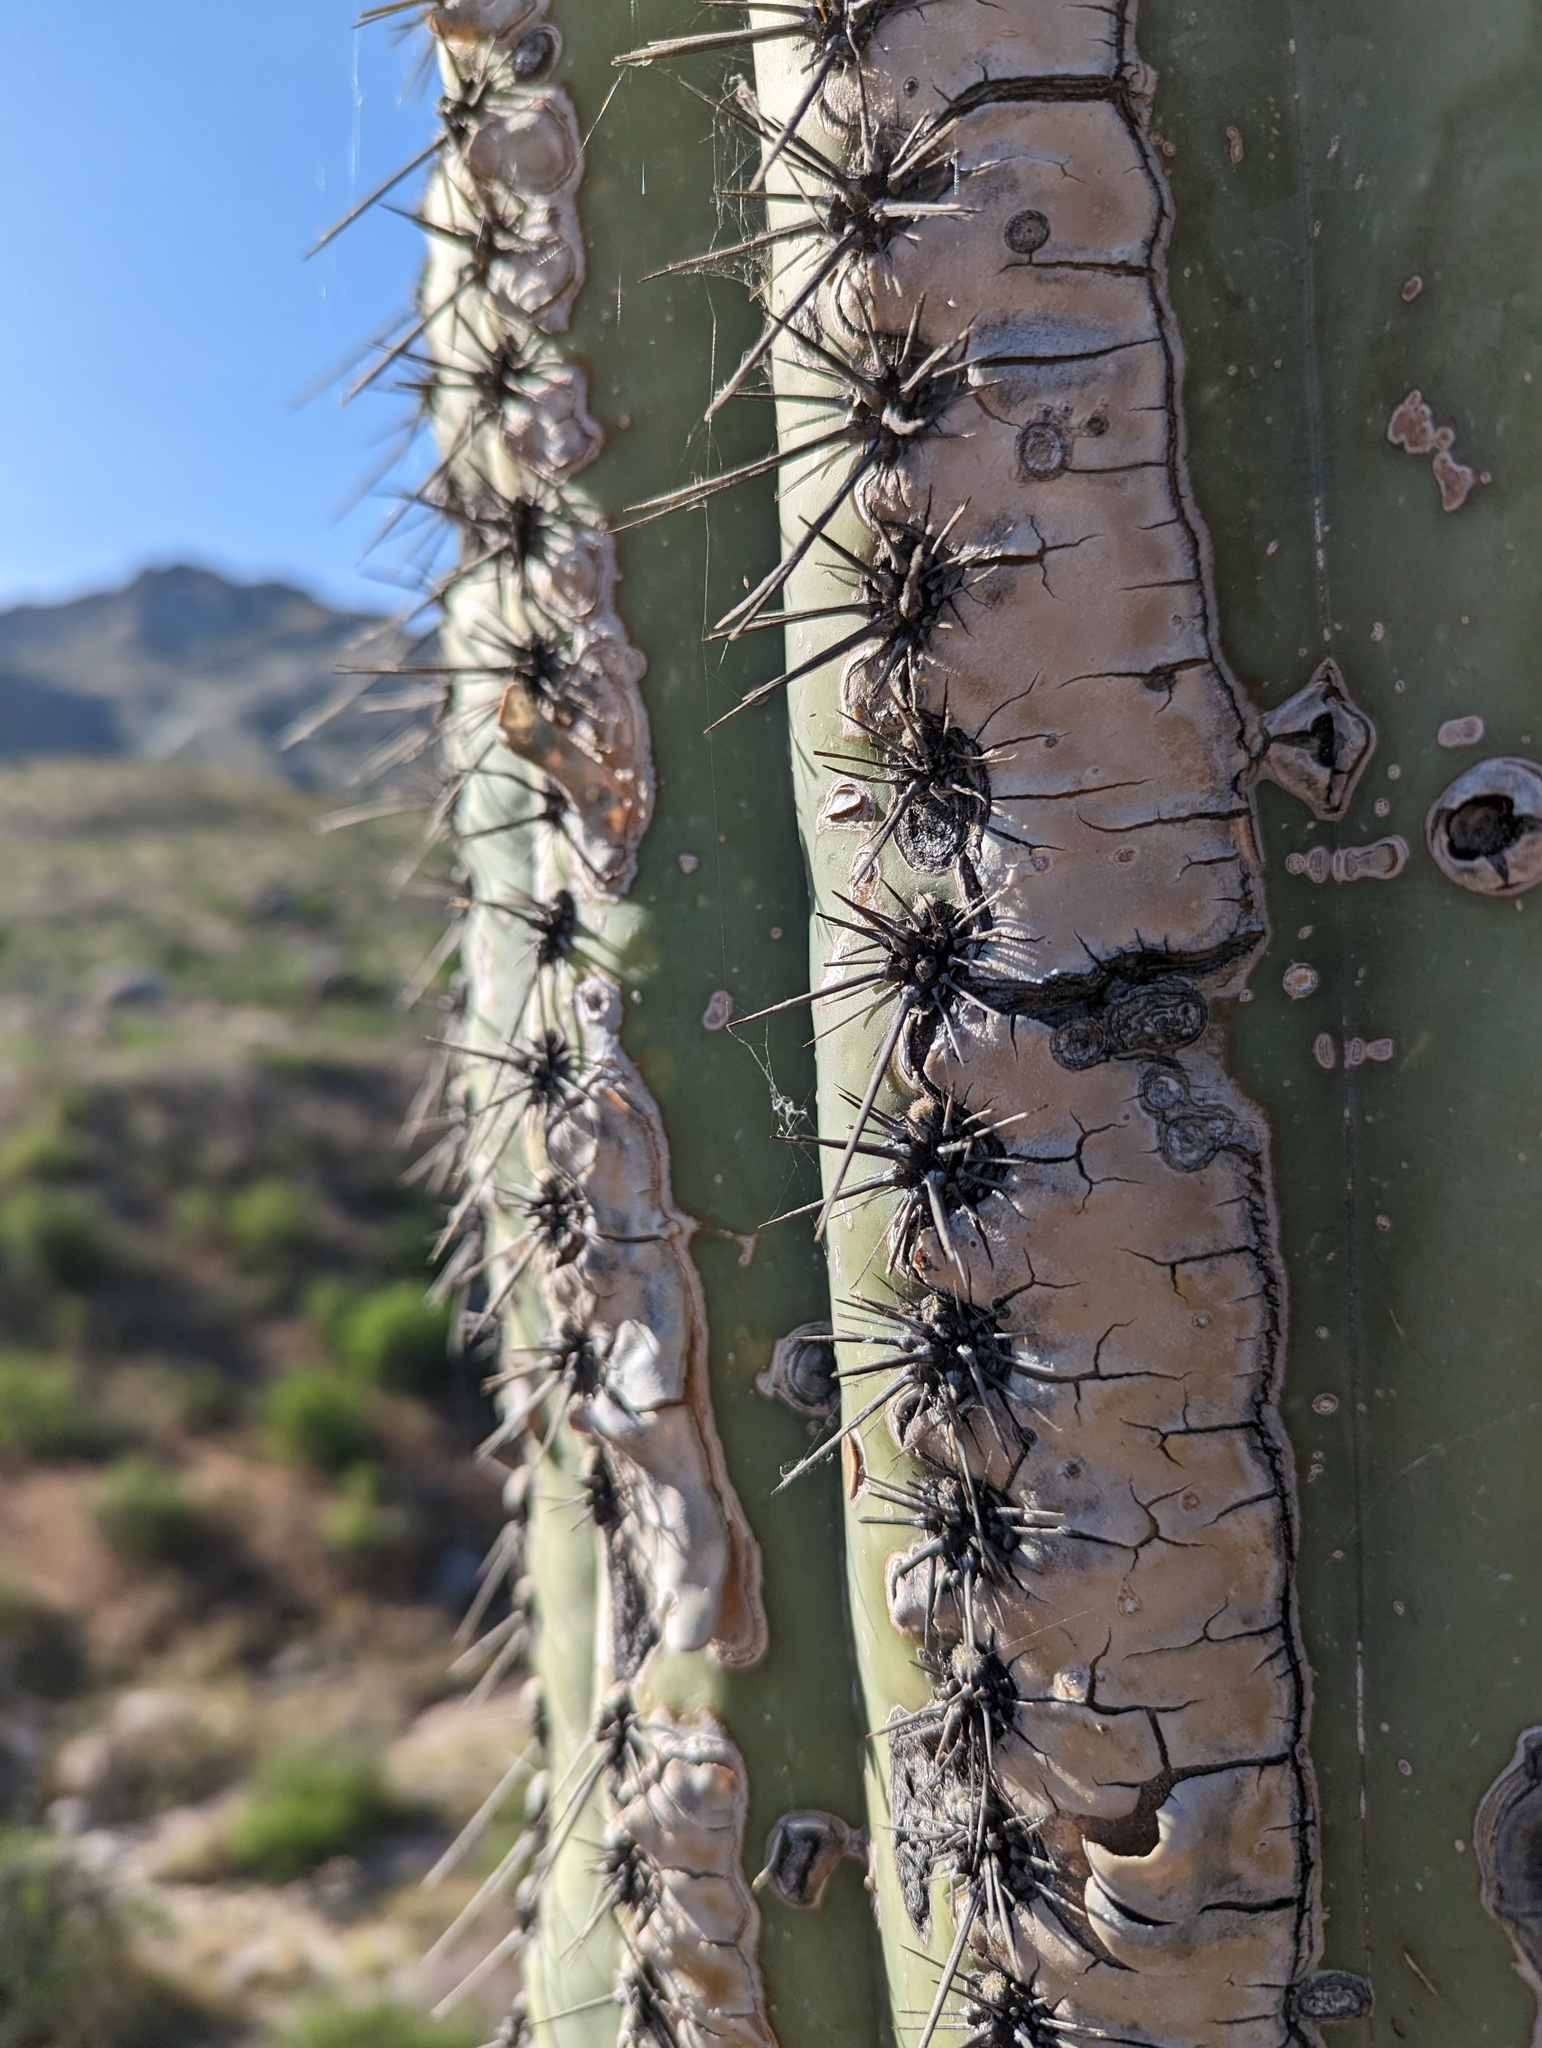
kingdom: Plantae
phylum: Tracheophyta
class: Magnoliopsida
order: Caryophyllales
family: Cactaceae
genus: Carnegiea
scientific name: Carnegiea gigantea
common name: Saguaro
